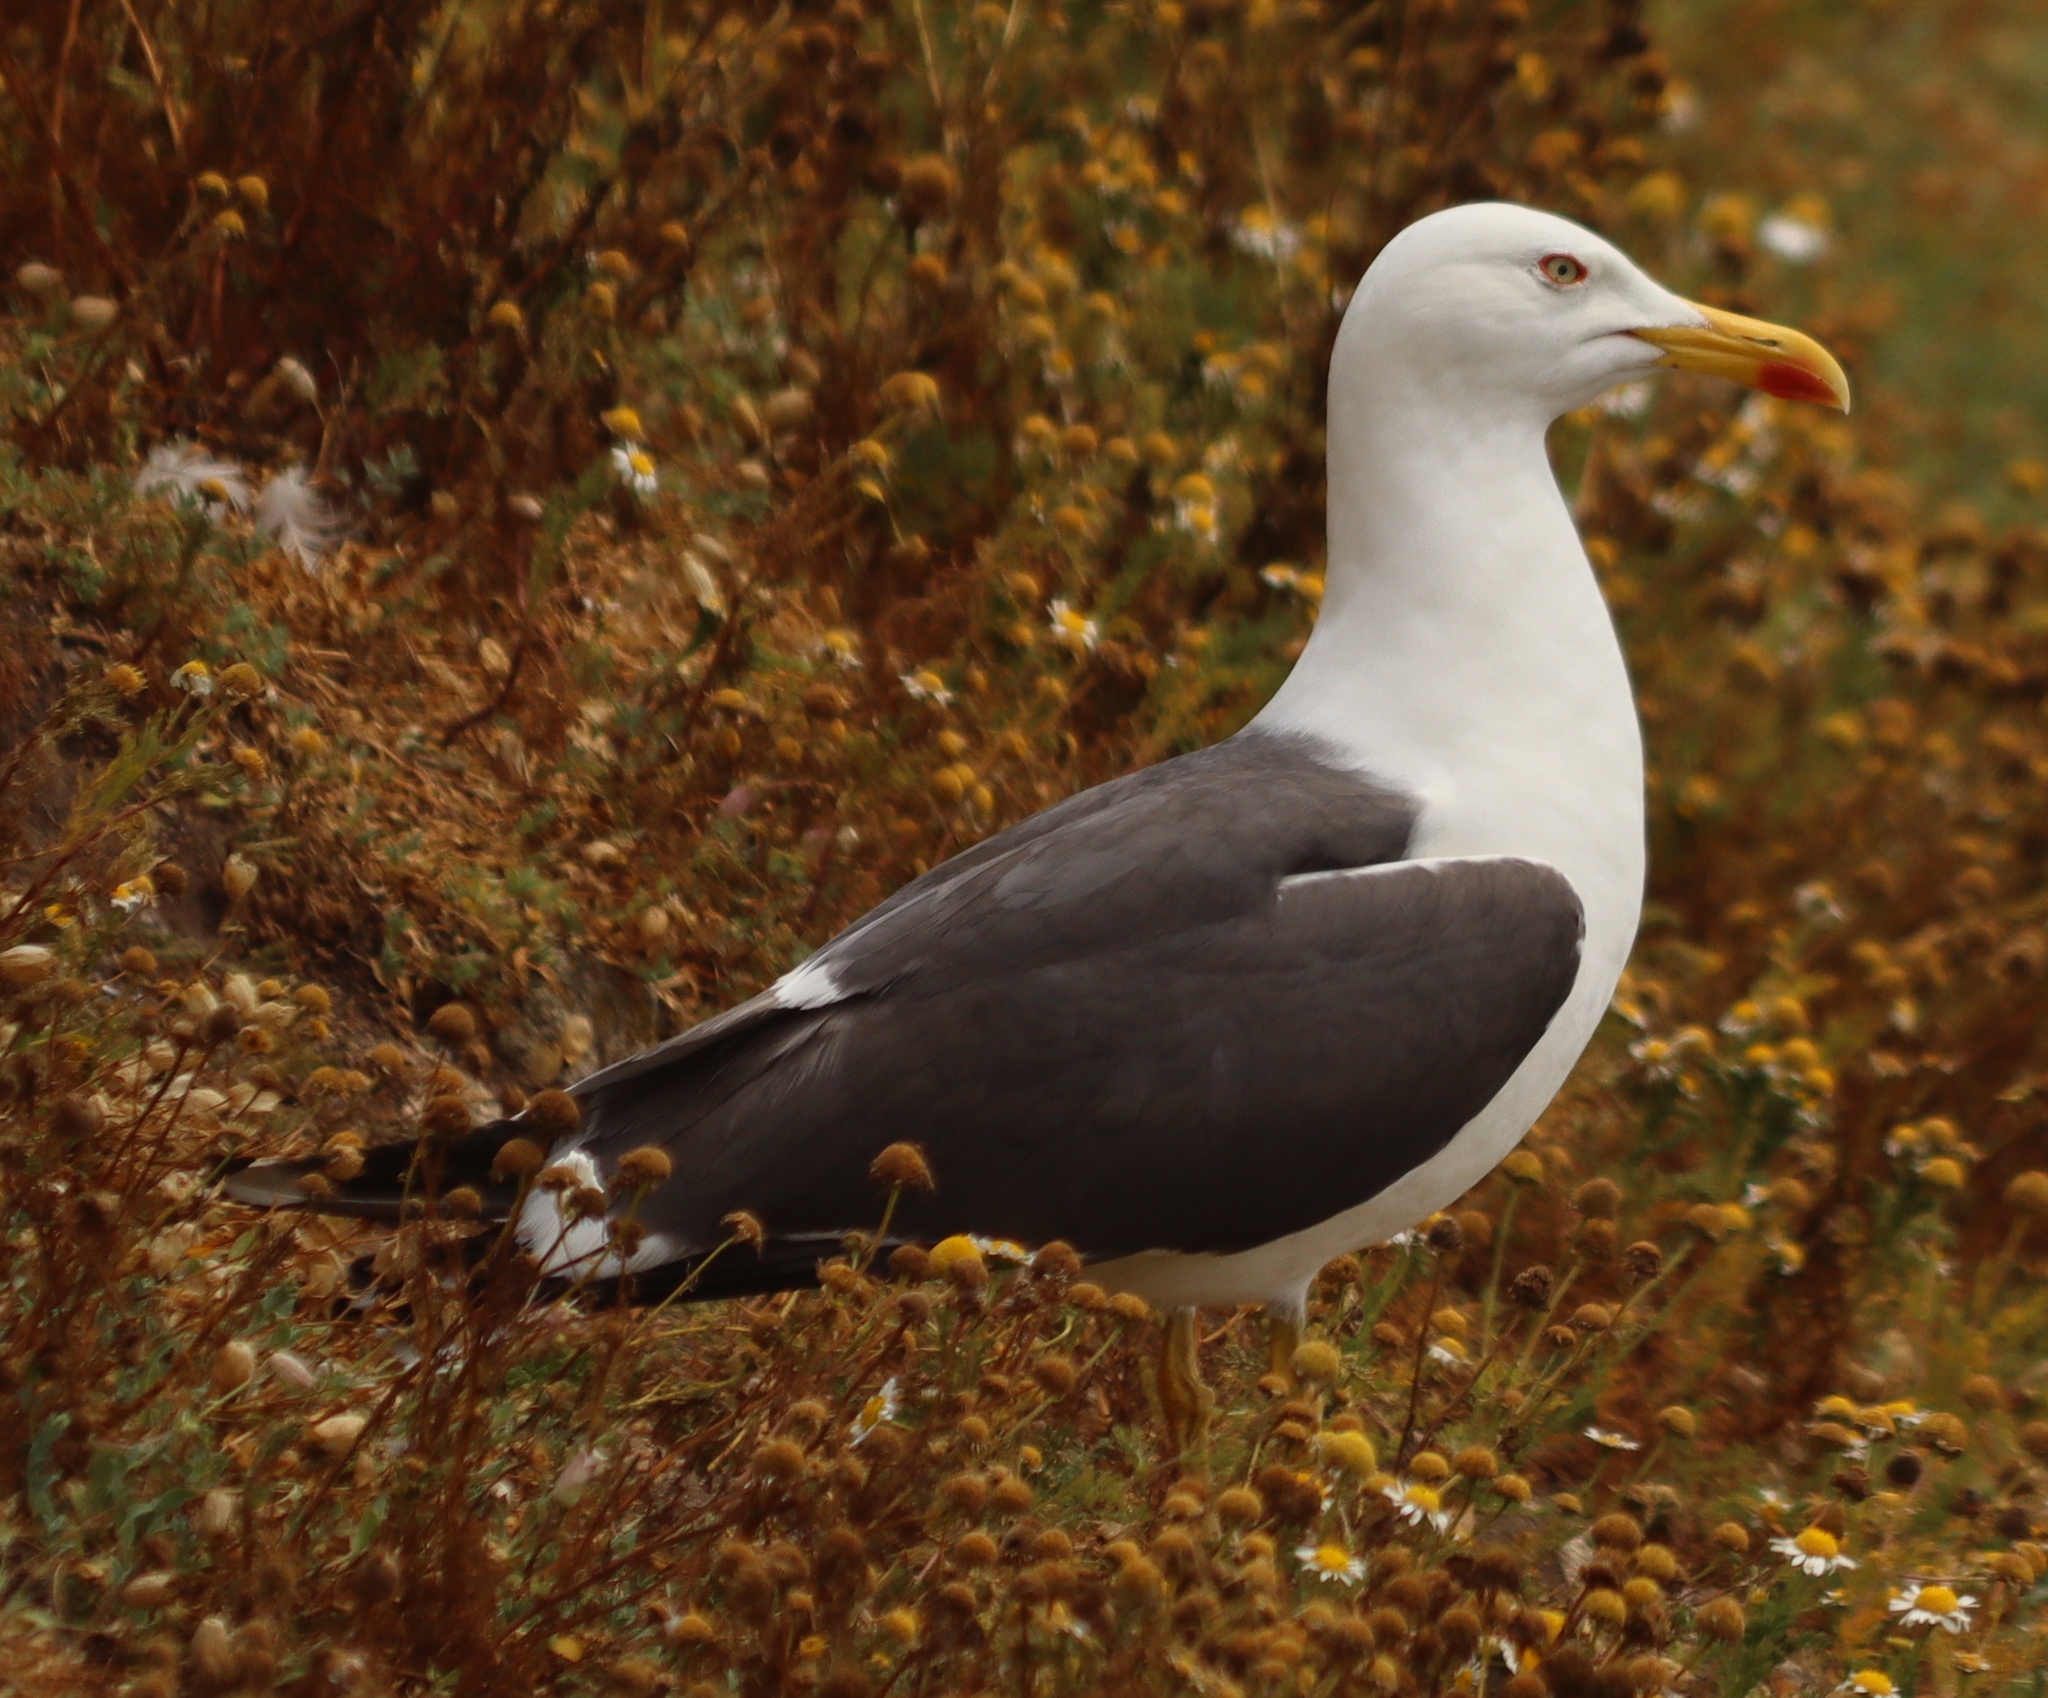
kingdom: Animalia
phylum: Chordata
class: Aves
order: Charadriiformes
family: Laridae
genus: Larus
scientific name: Larus fuscus
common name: Lesser black-backed gull
